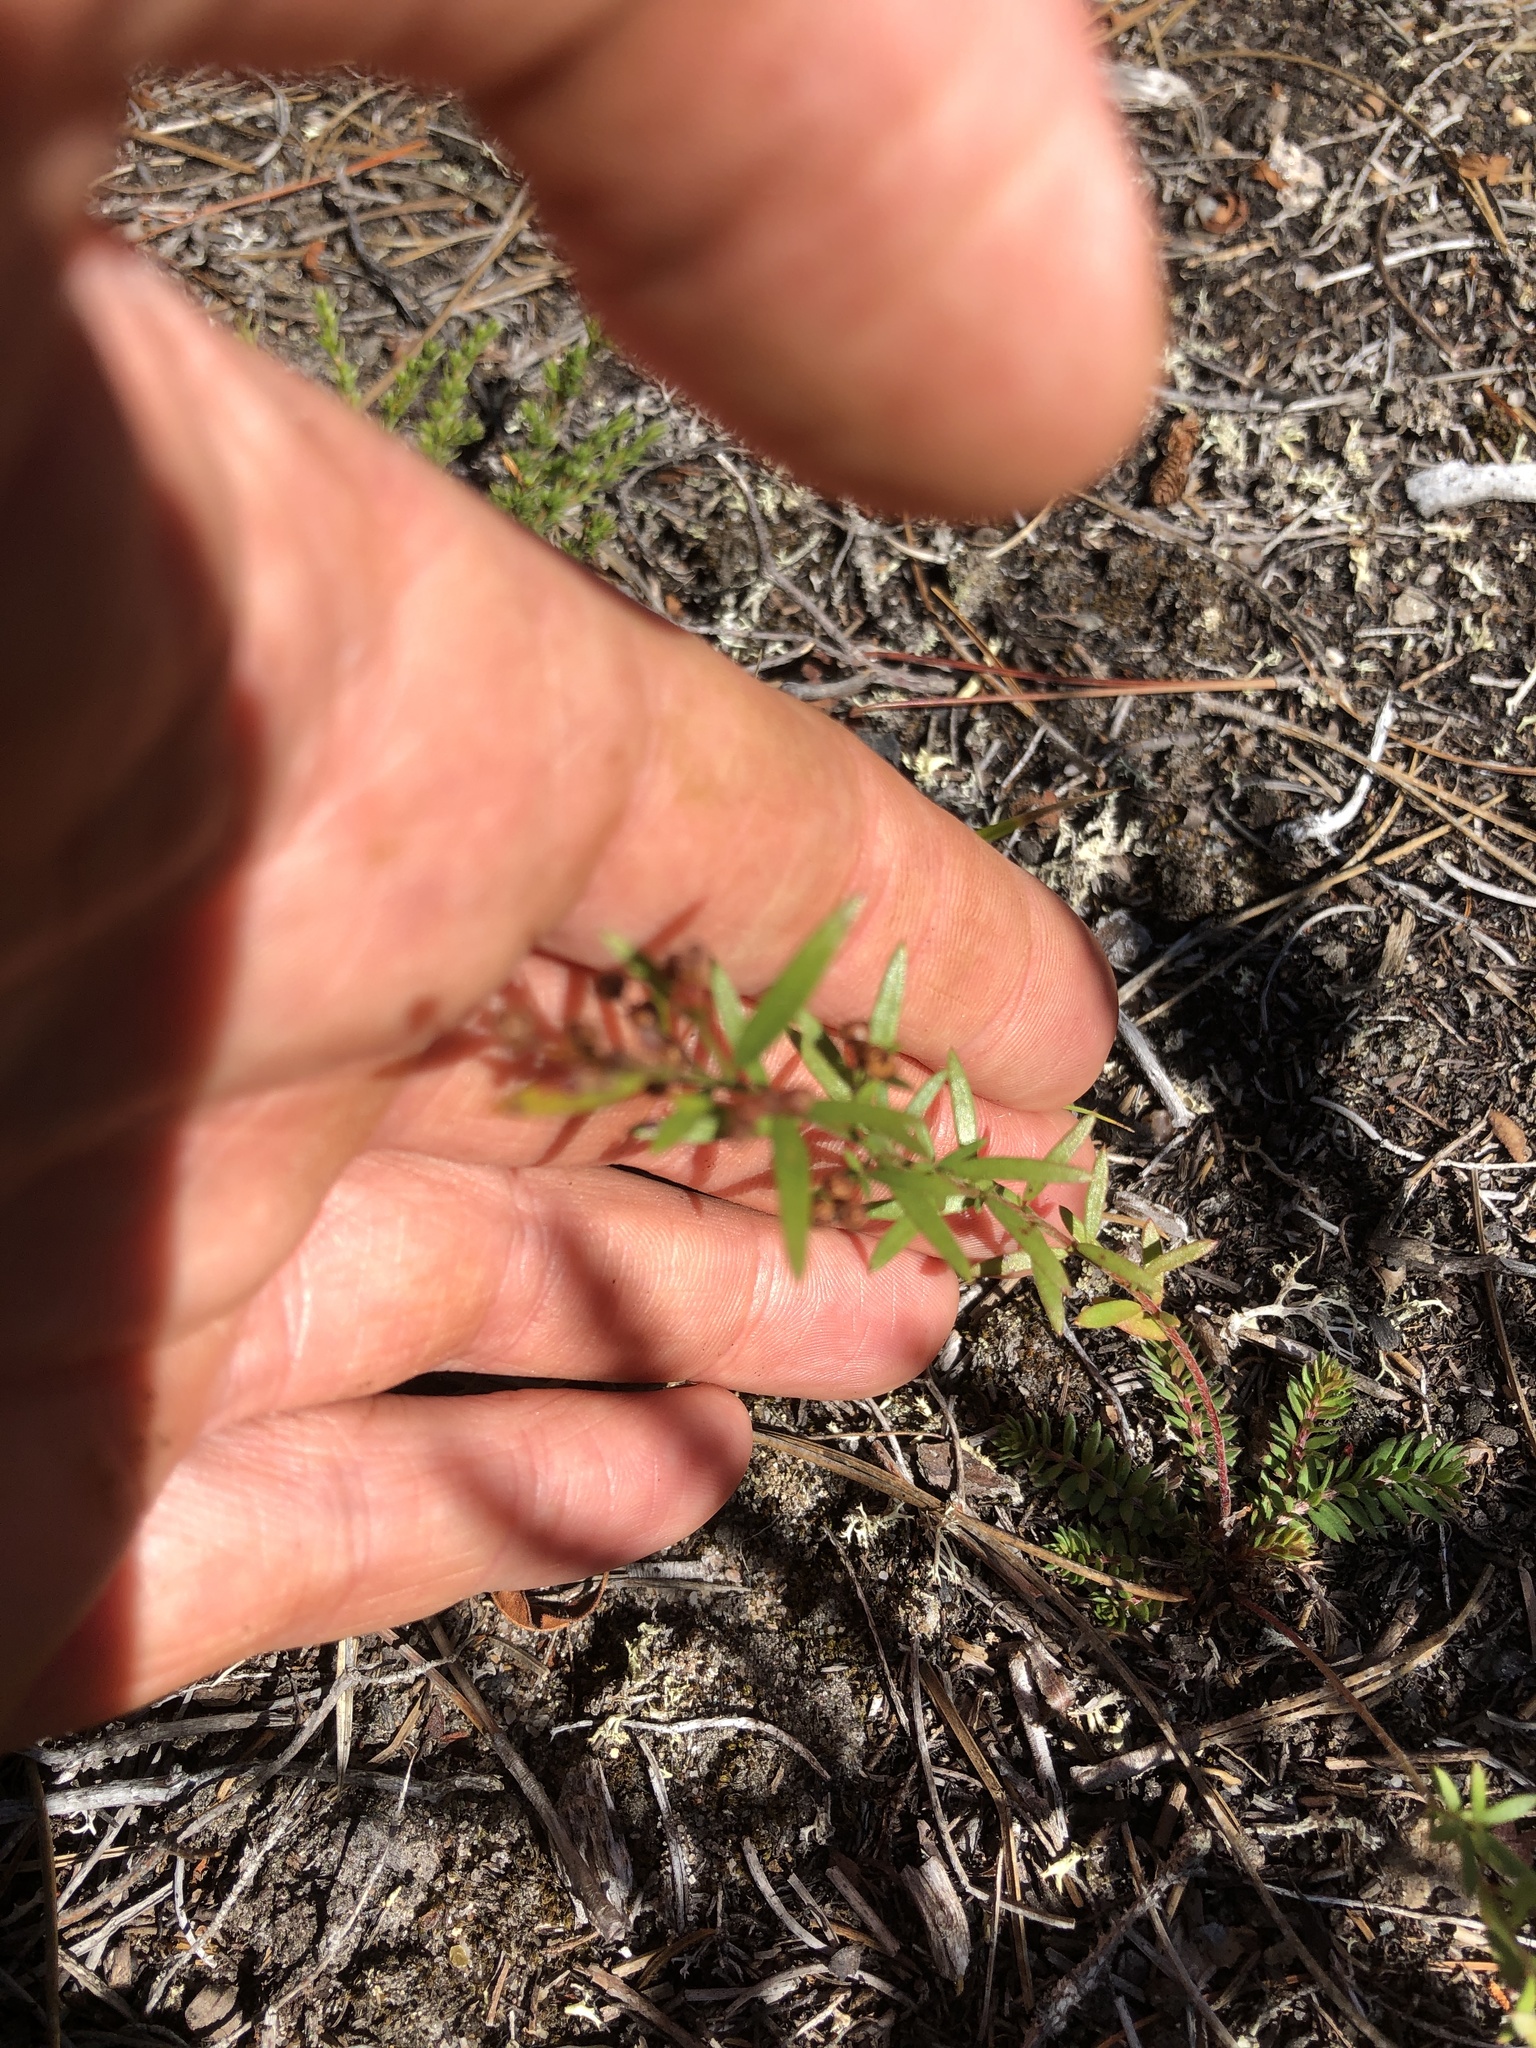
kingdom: Plantae
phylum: Tracheophyta
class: Magnoliopsida
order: Malvales
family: Cistaceae
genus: Lechea
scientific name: Lechea intermedia
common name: Intermediate pinweed
